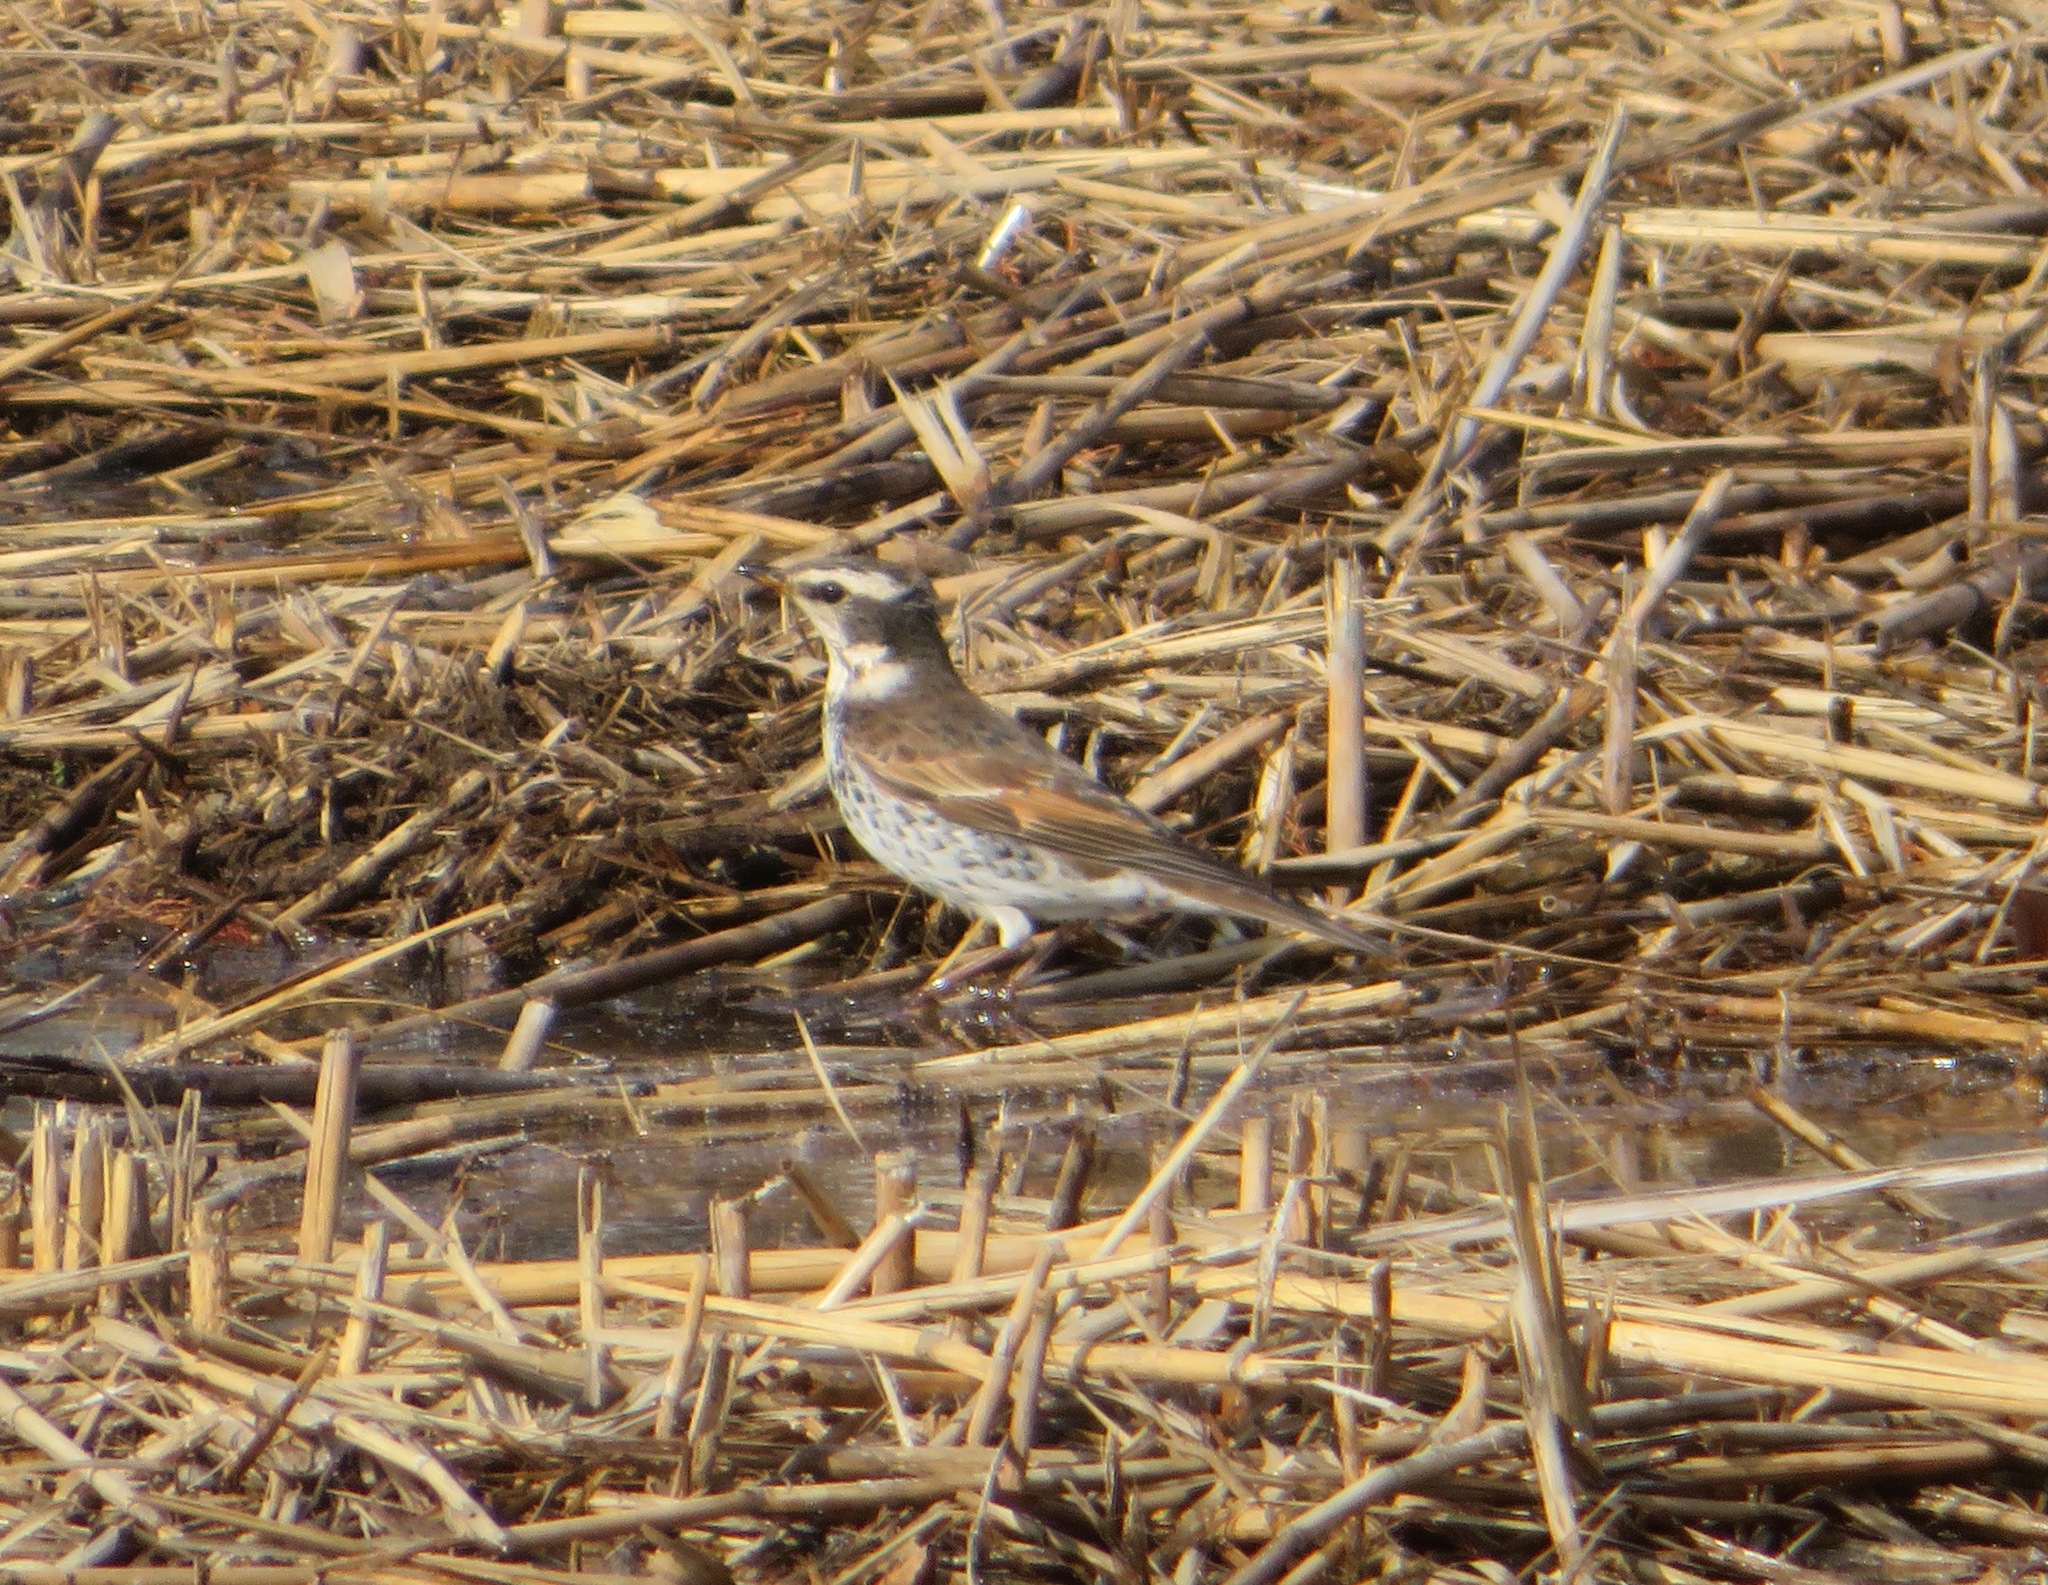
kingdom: Animalia
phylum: Chordata
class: Aves
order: Passeriformes
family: Turdidae
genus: Turdus
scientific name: Turdus eunomus
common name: Dusky thrush
